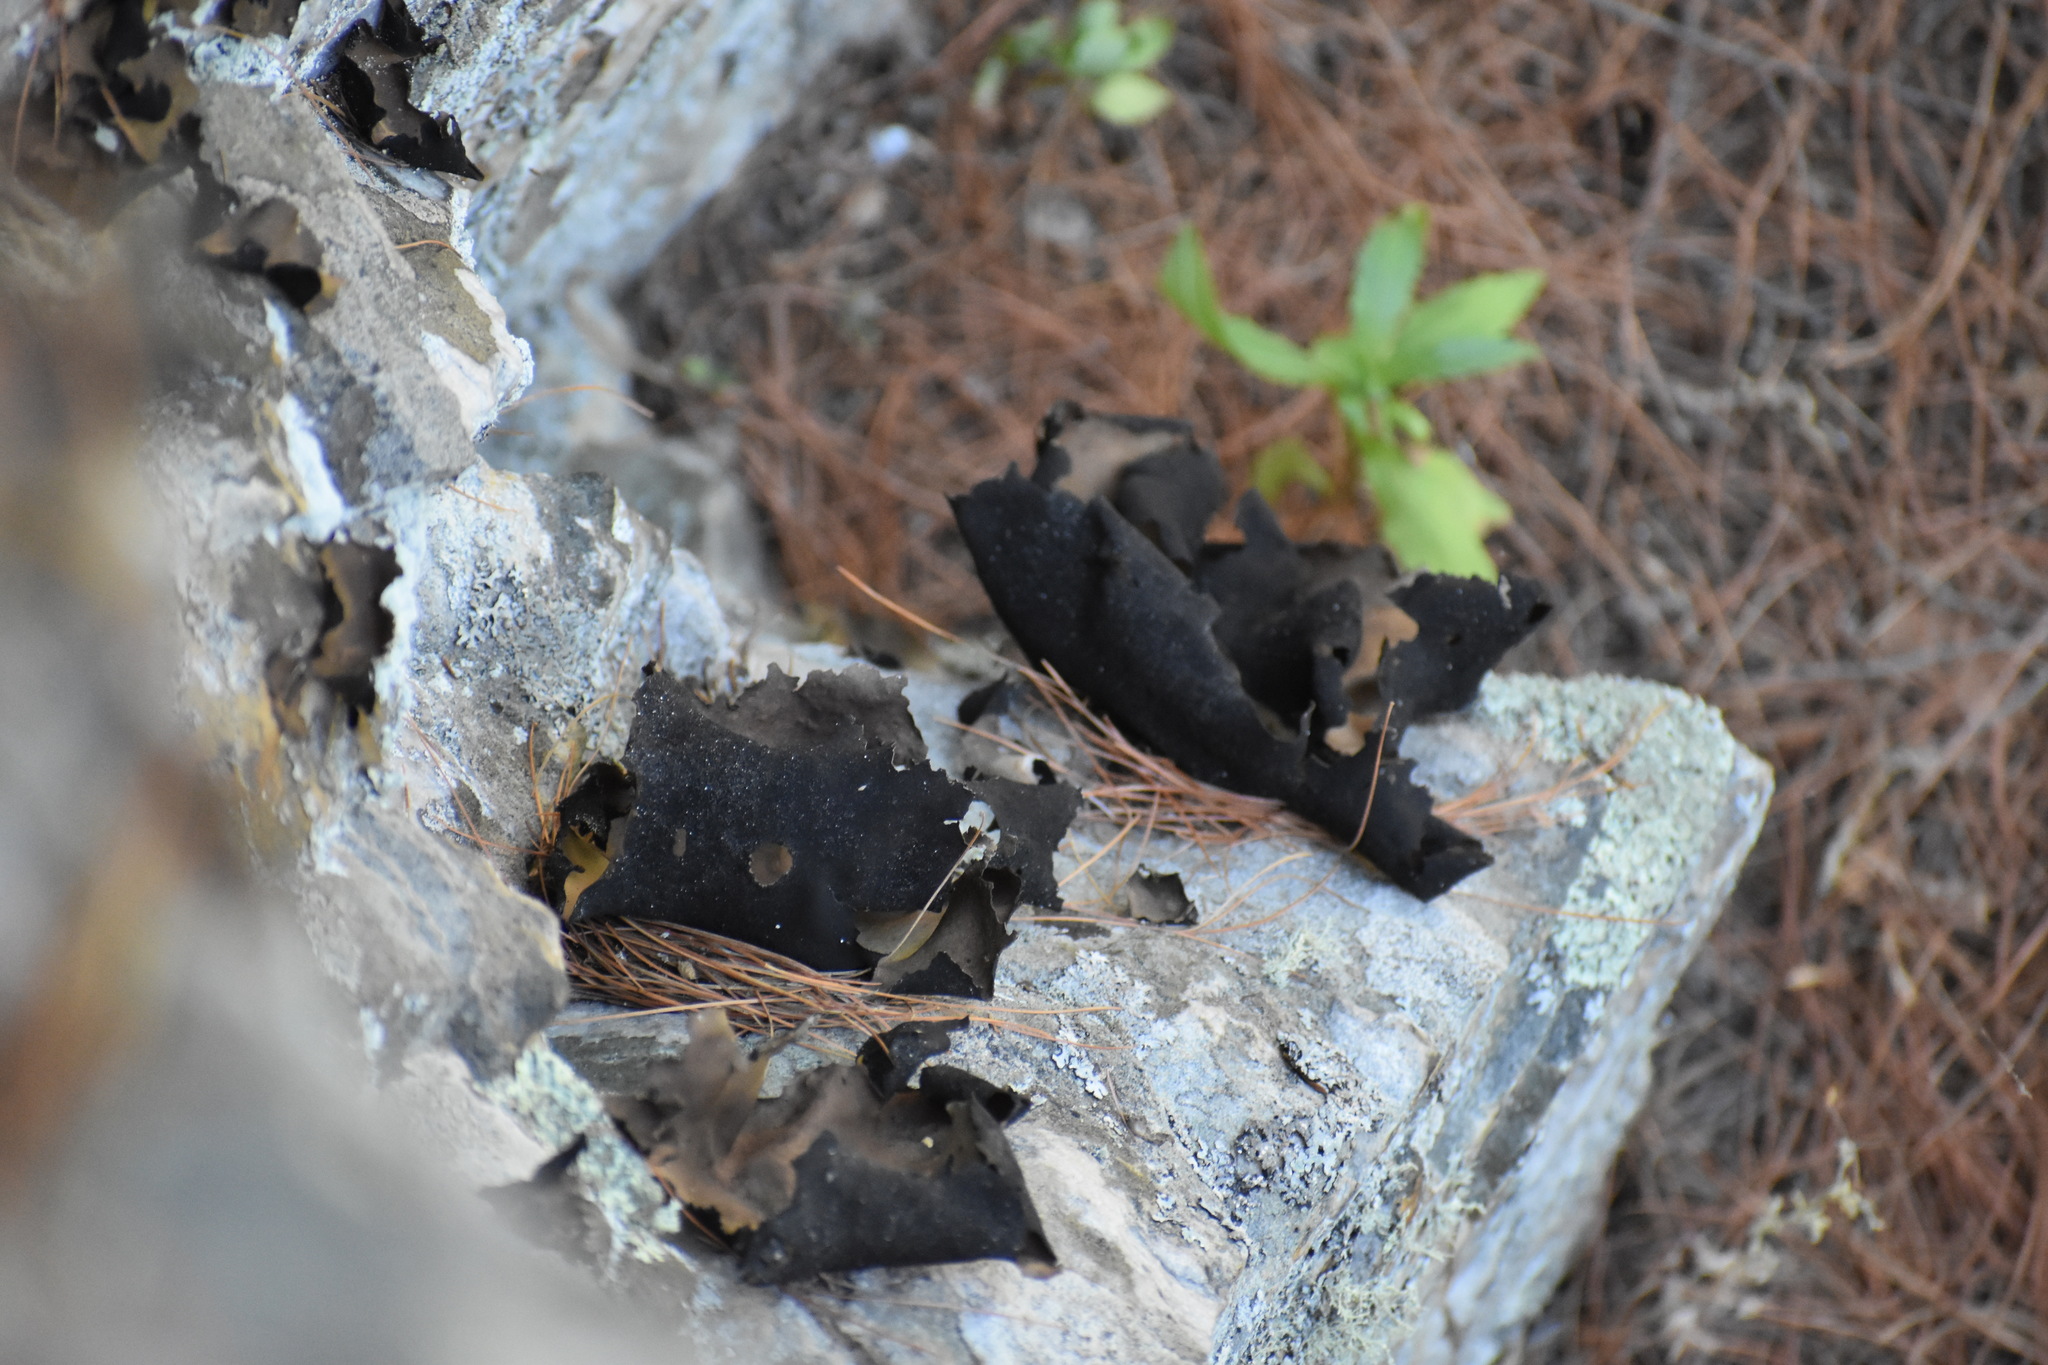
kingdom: Fungi
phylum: Ascomycota
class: Lecanoromycetes
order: Umbilicariales
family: Umbilicariaceae
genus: Umbilicaria
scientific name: Umbilicaria mammulata
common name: Smooth rock tripe
